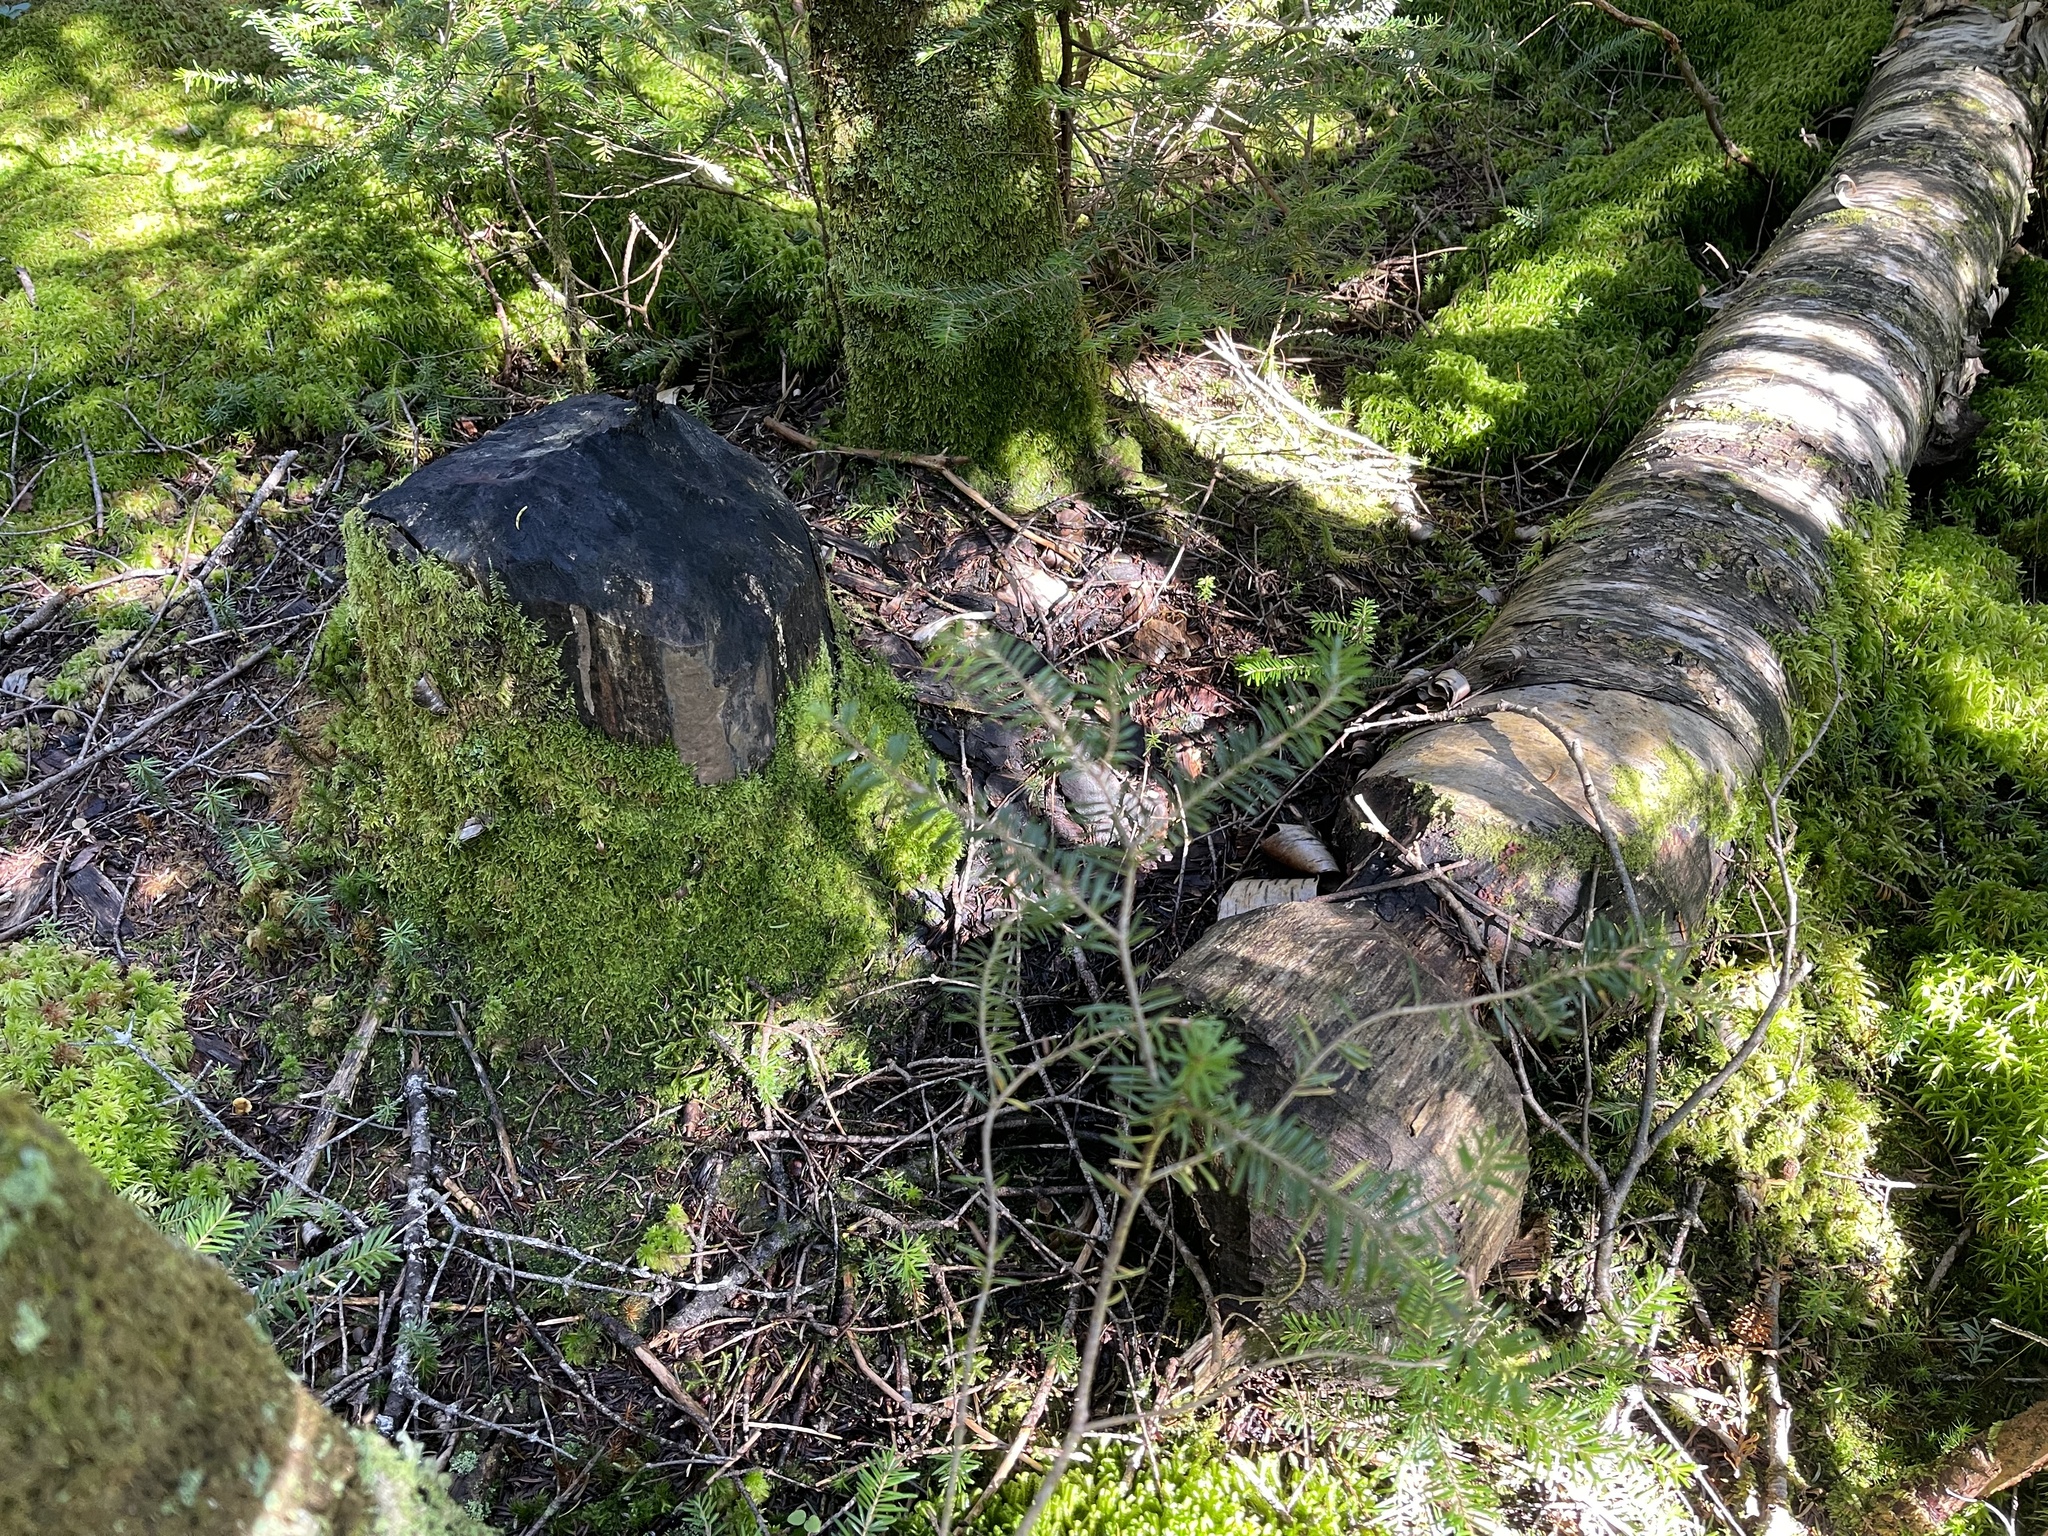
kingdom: Animalia
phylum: Chordata
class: Mammalia
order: Rodentia
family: Castoridae
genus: Castor
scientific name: Castor canadensis
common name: American beaver
